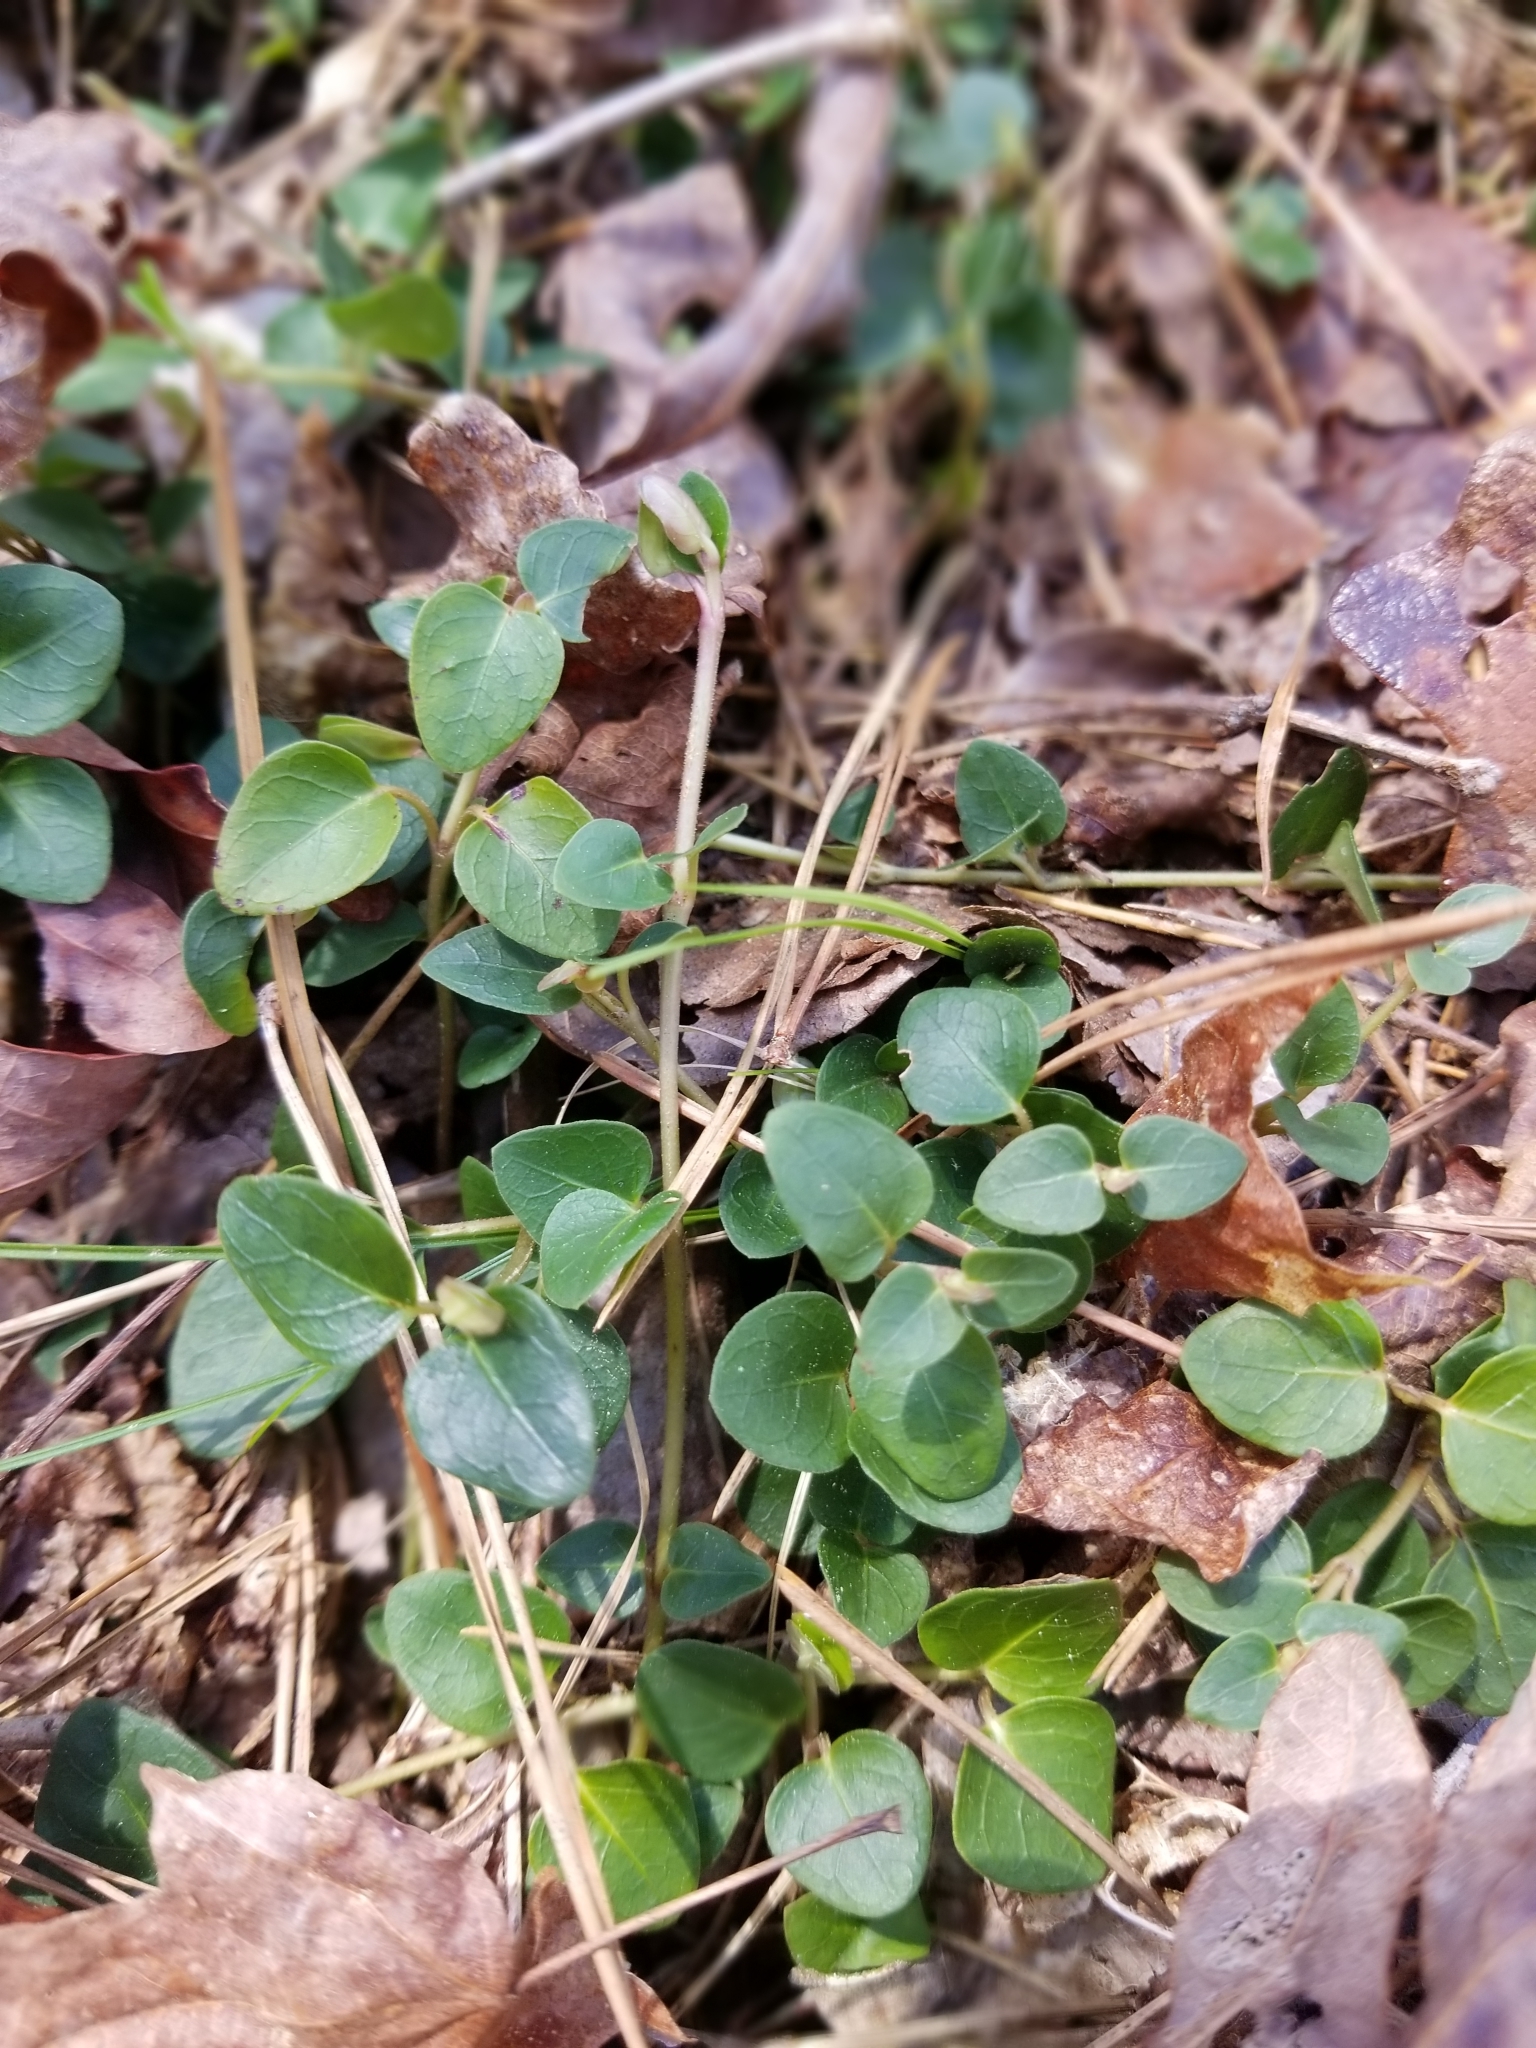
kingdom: Plantae
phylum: Tracheophyta
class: Magnoliopsida
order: Gentianales
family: Rubiaceae
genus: Mitchella
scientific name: Mitchella repens
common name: Partridge-berry
